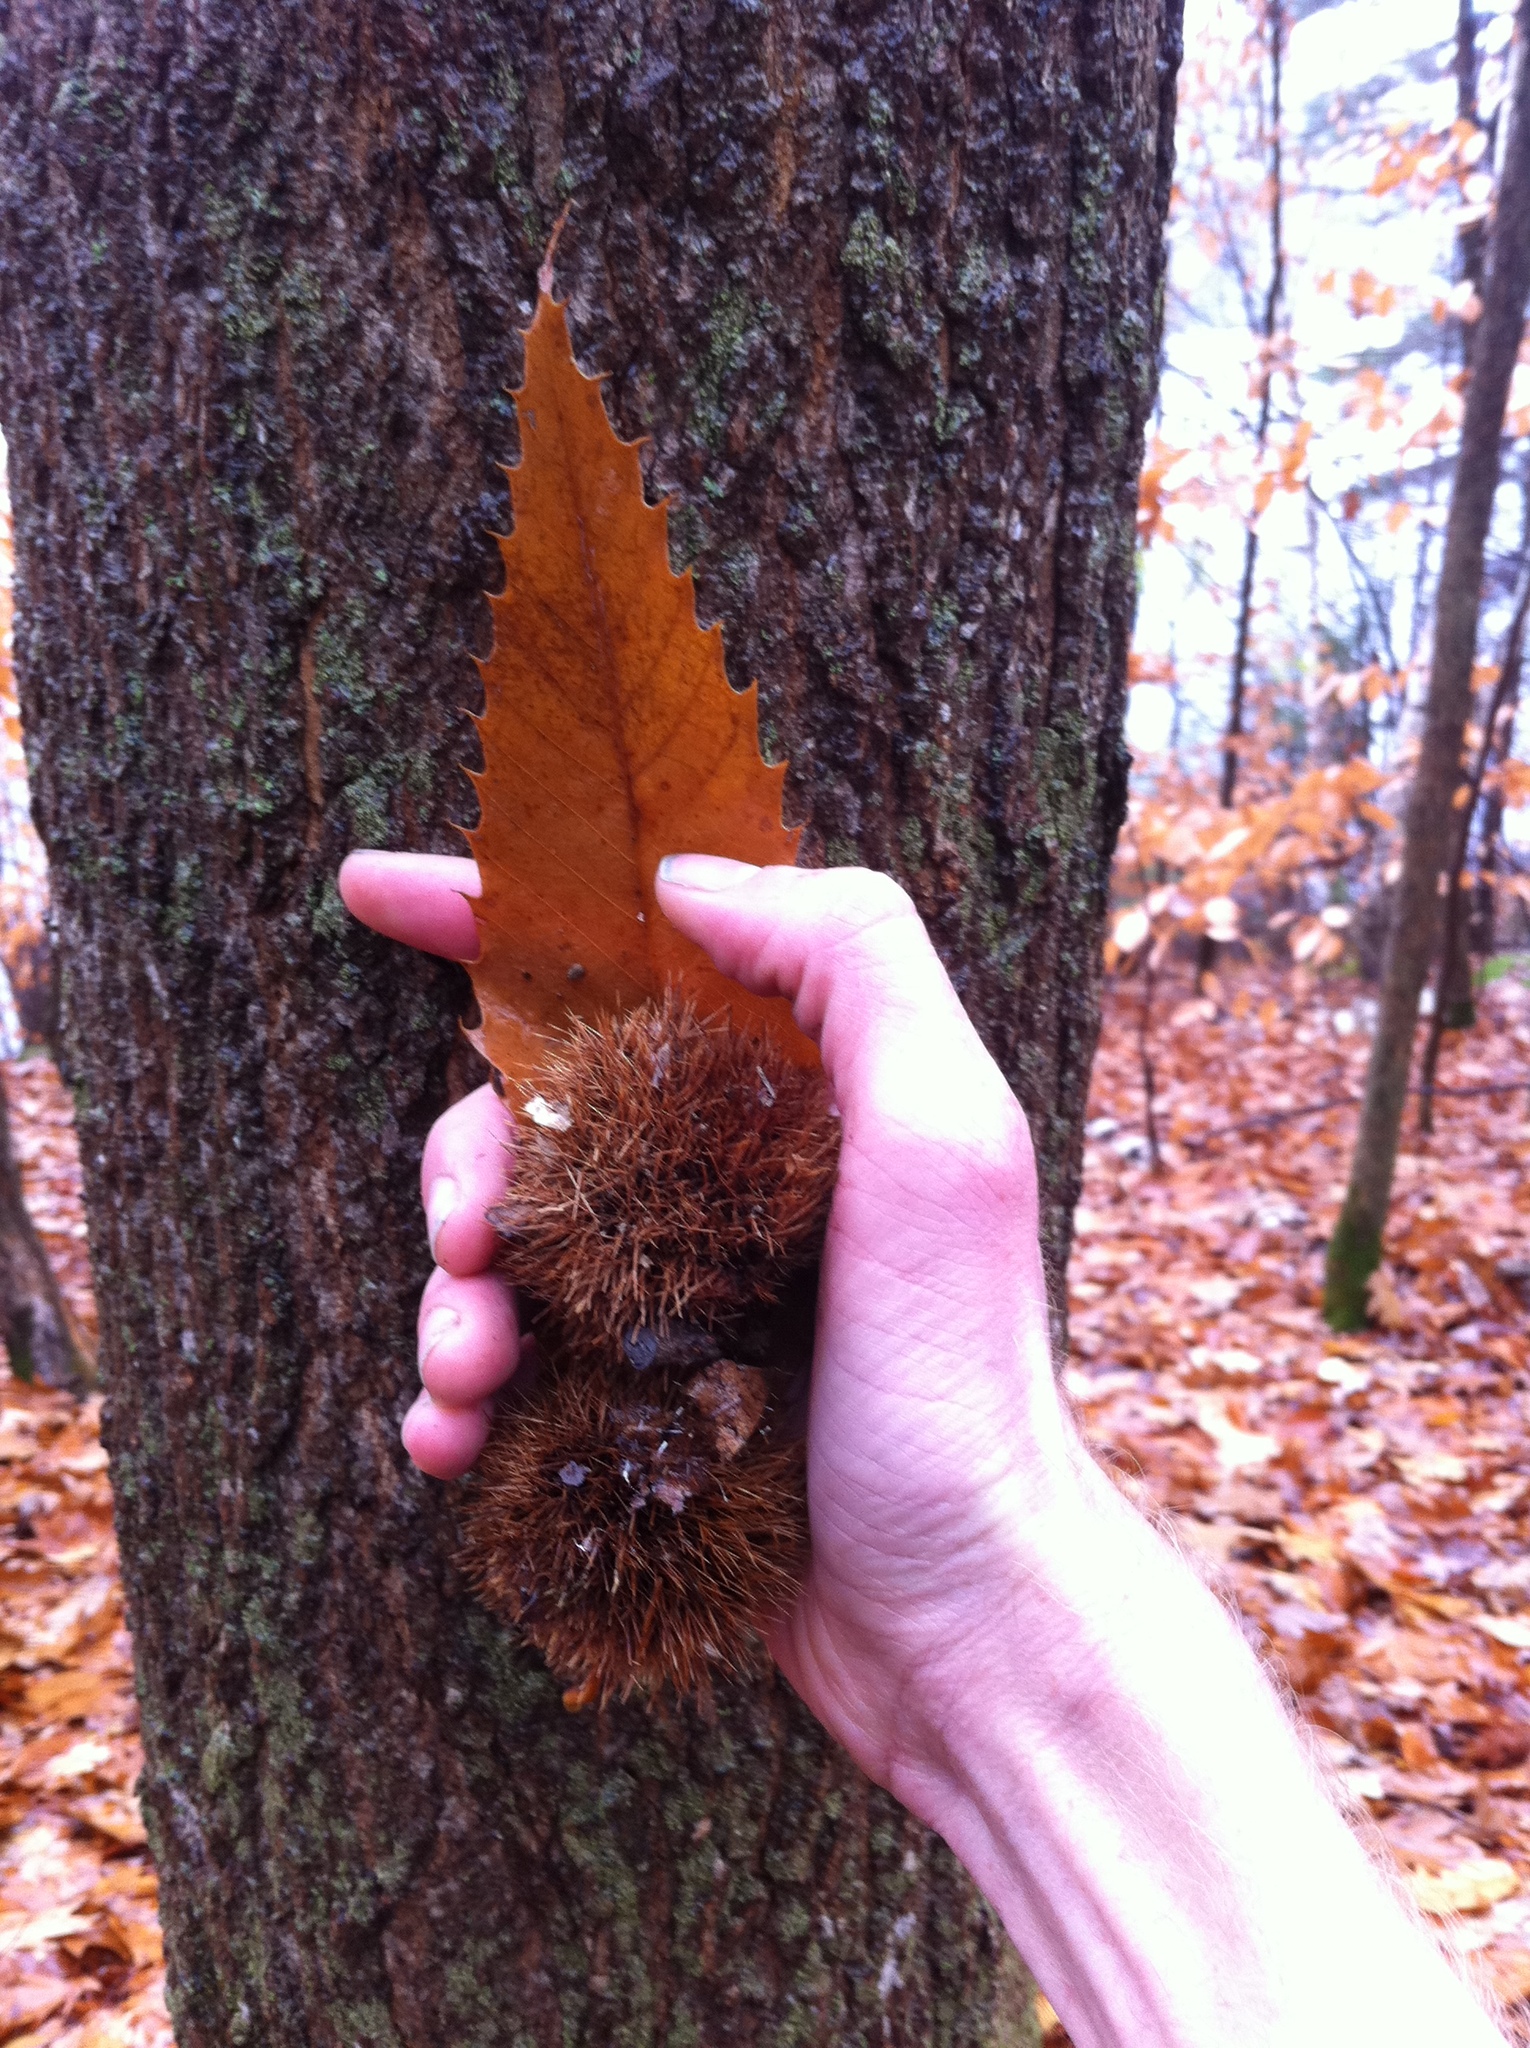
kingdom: Plantae
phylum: Tracheophyta
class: Magnoliopsida
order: Fagales
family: Fagaceae
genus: Castanea
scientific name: Castanea dentata
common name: American chestnut
